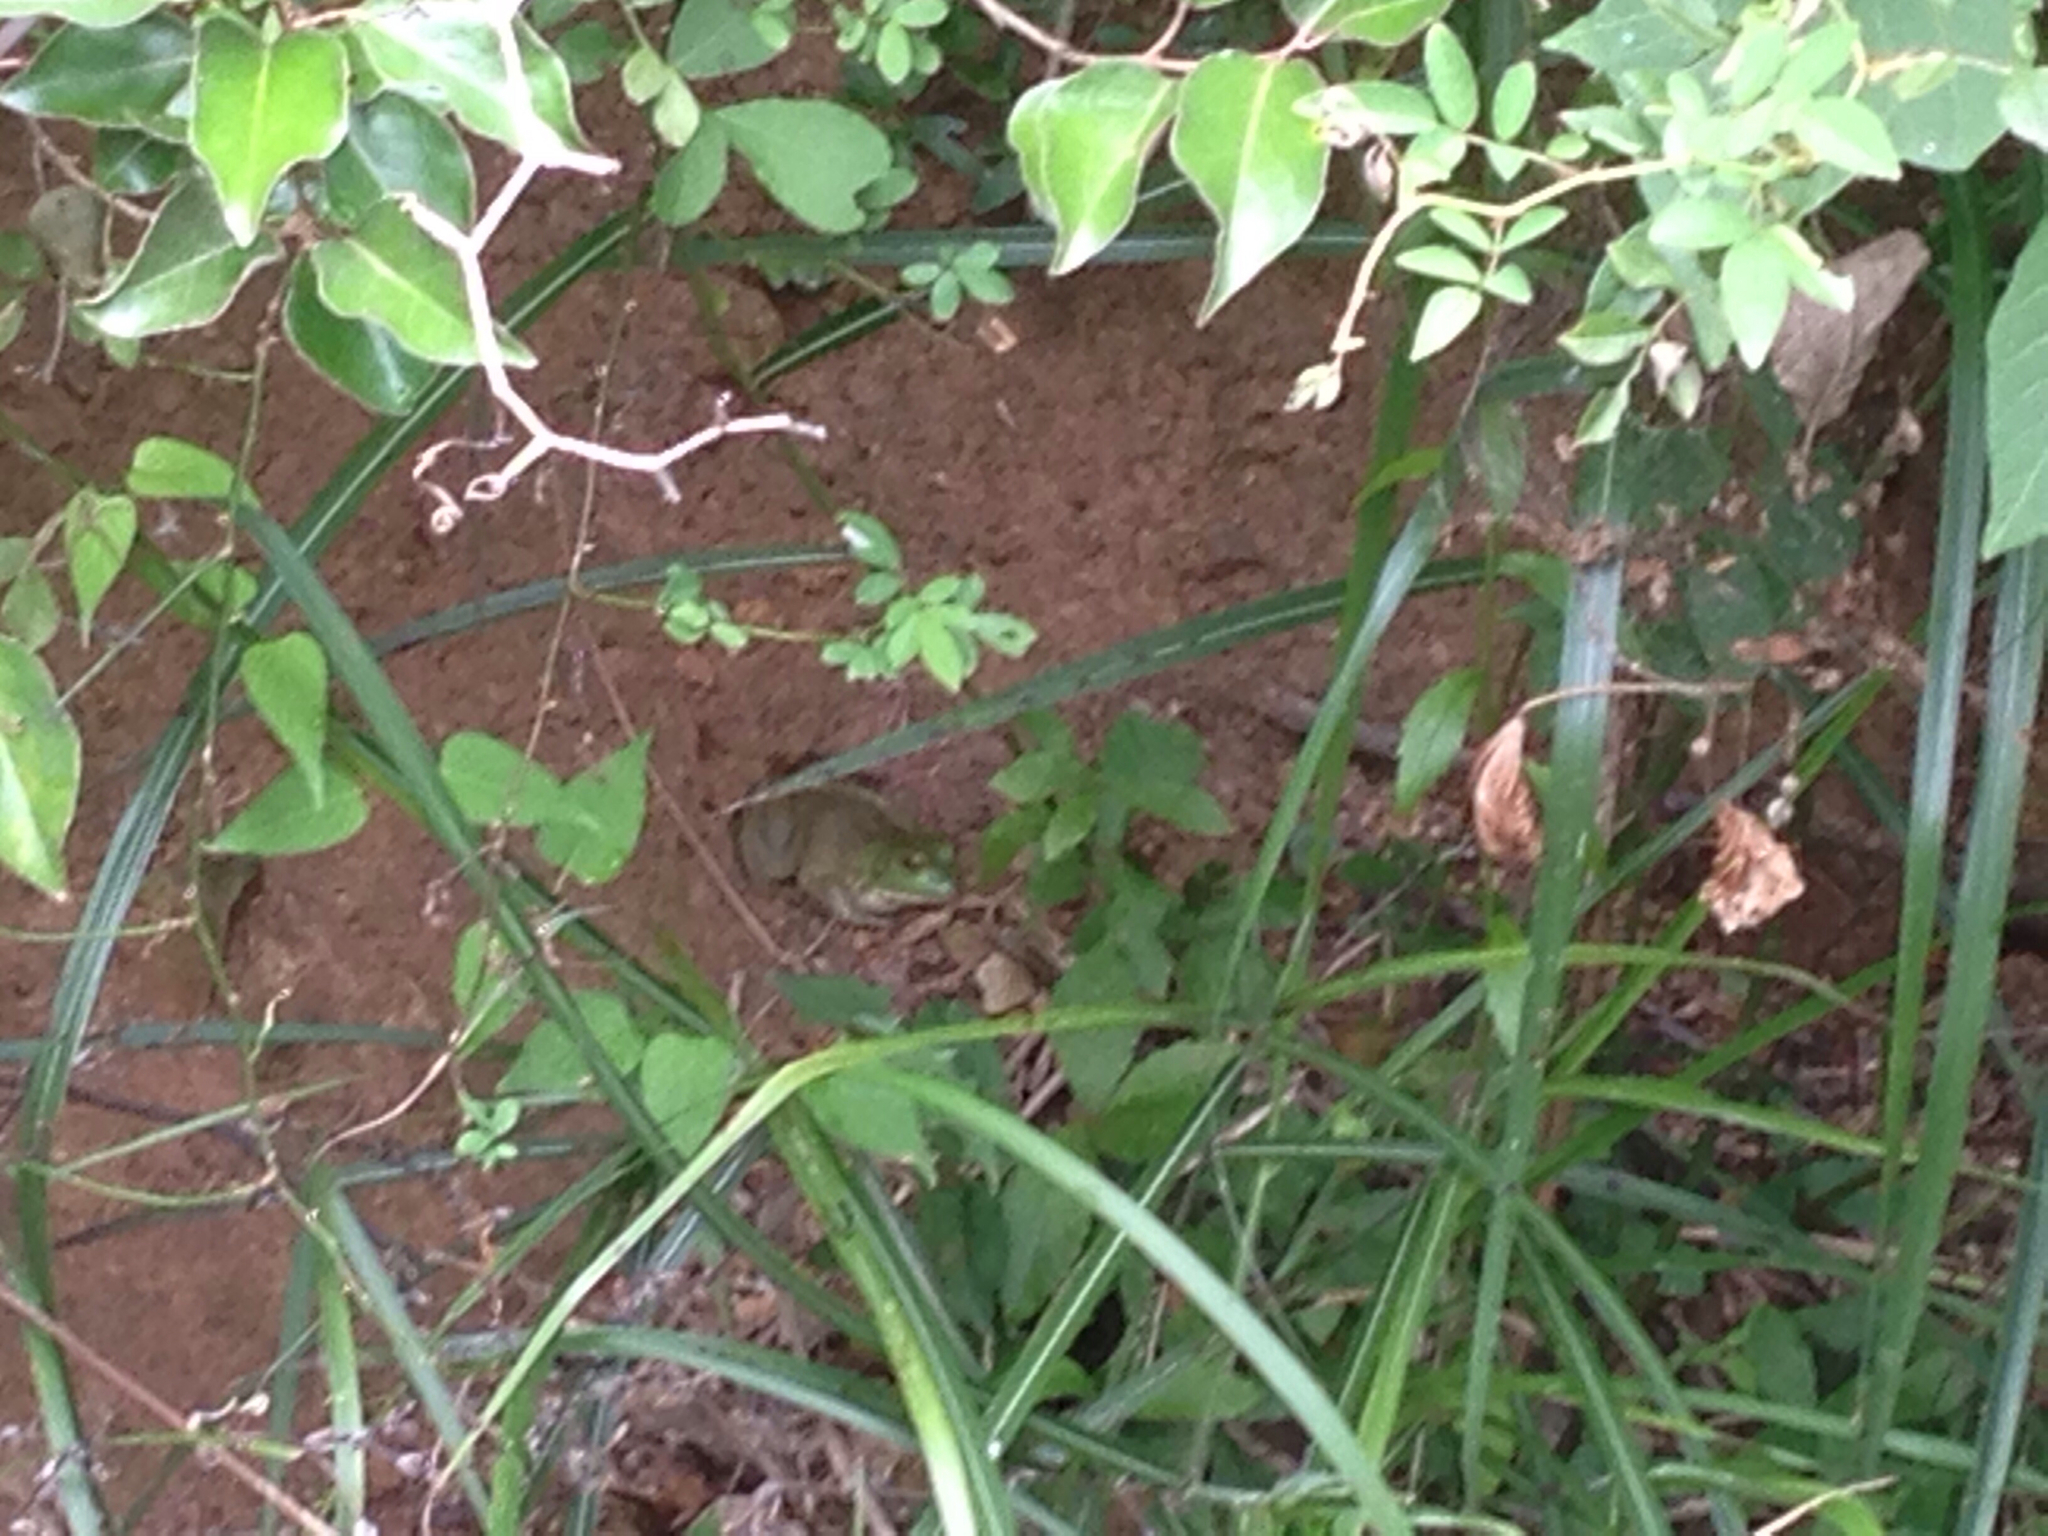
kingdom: Animalia
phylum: Chordata
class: Amphibia
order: Anura
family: Ranidae
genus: Lithobates
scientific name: Lithobates catesbeianus
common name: American bullfrog
